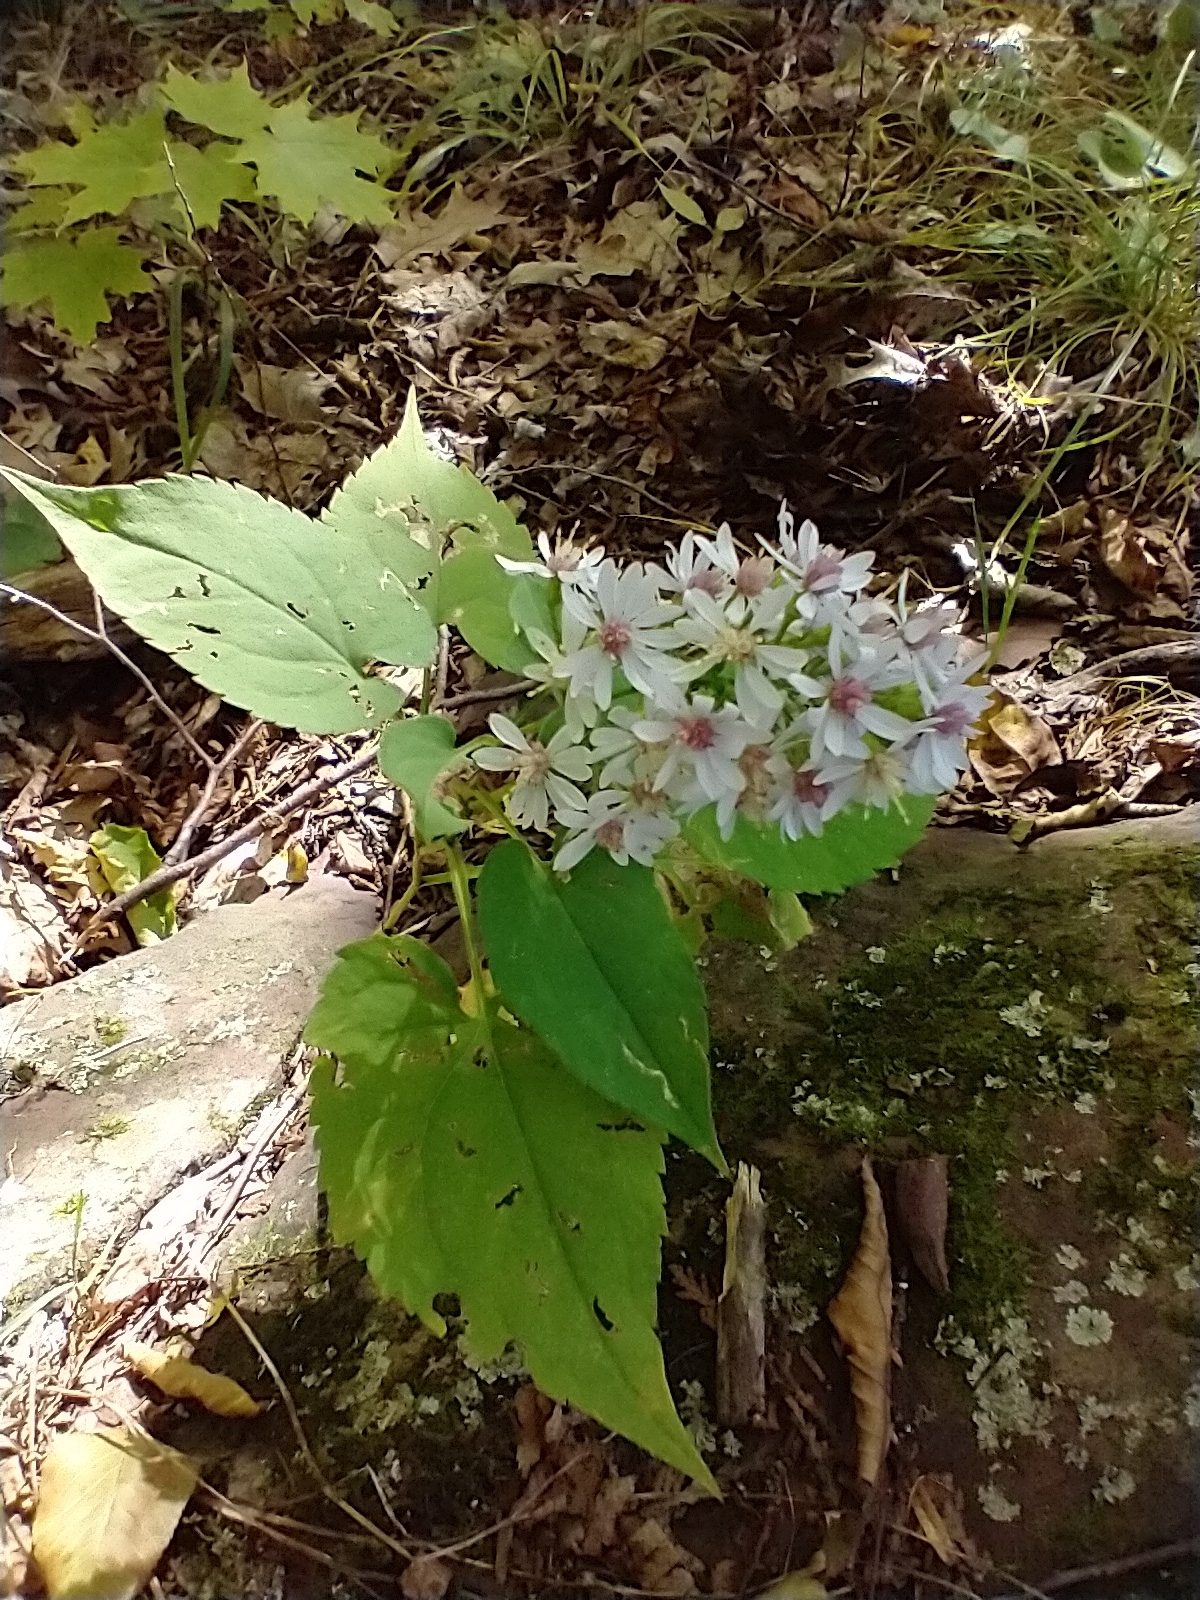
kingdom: Plantae
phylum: Tracheophyta
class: Magnoliopsida
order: Asterales
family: Asteraceae
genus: Symphyotrichum
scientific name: Symphyotrichum cordifolium
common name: Beeweed
